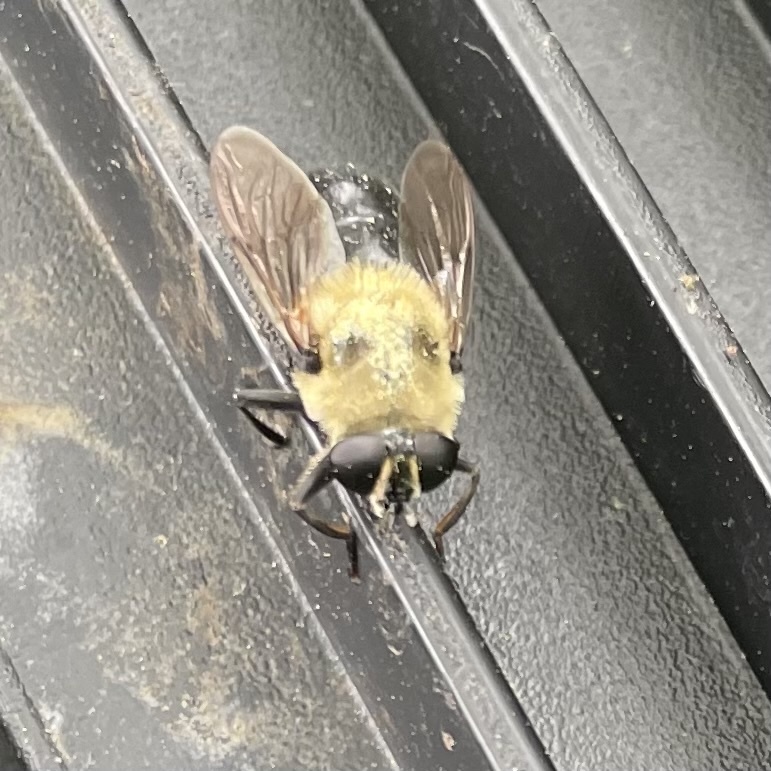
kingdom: Animalia
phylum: Arthropoda
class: Insecta
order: Diptera
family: Syrphidae
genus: Imatisma
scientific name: Imatisma bautias
